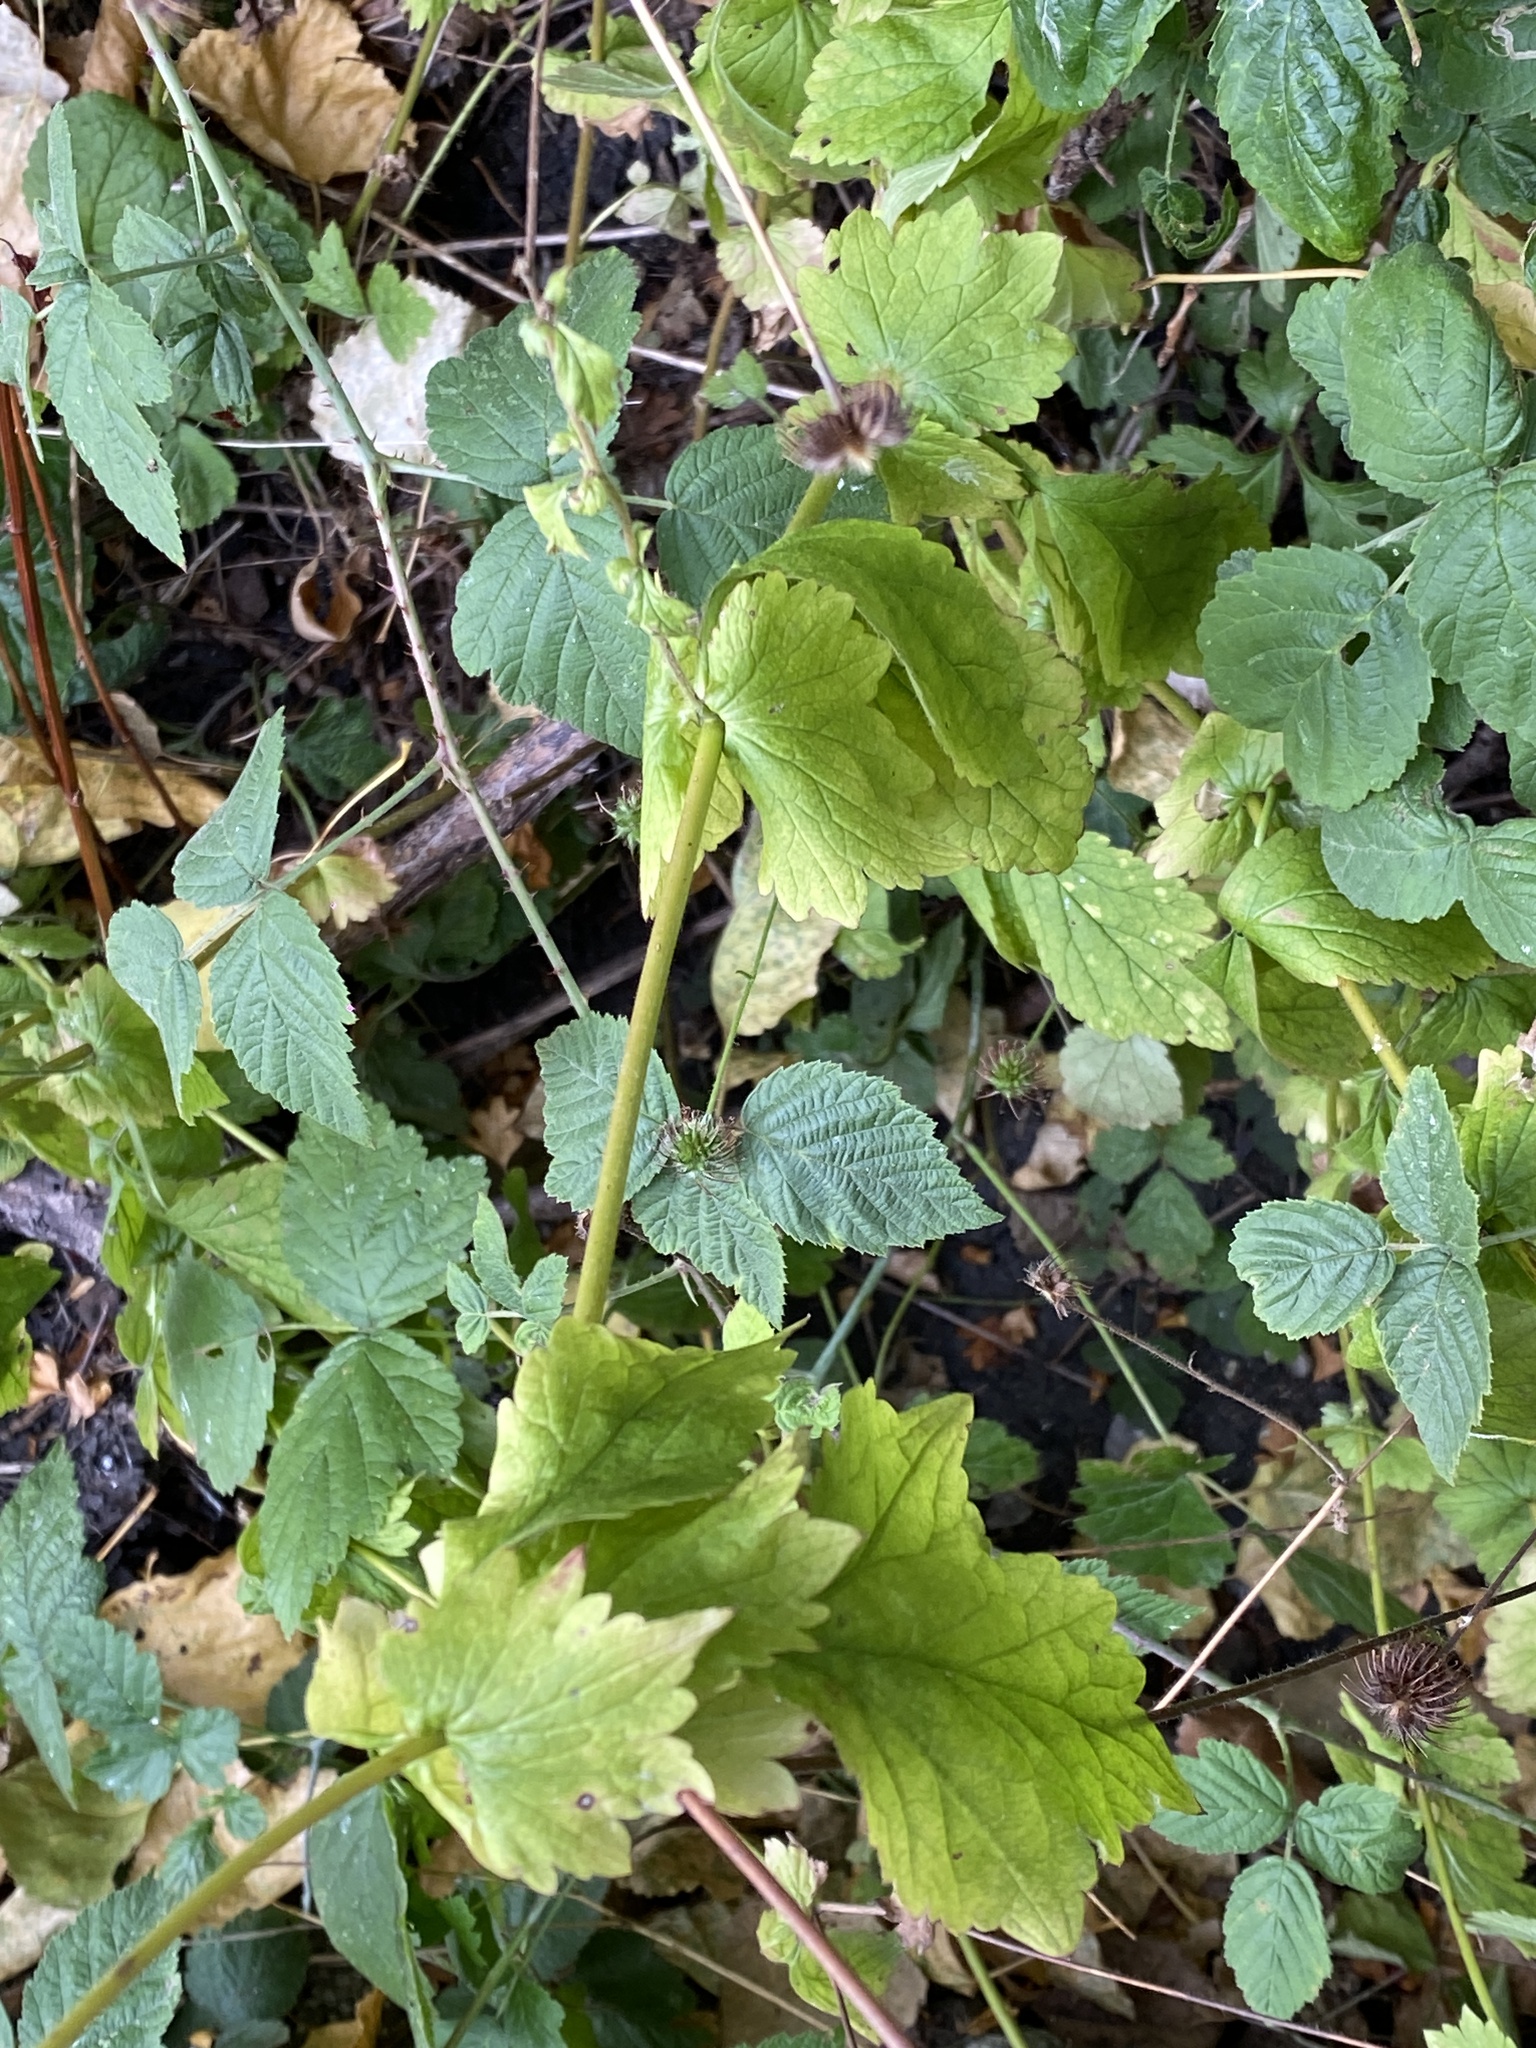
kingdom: Plantae
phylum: Tracheophyta
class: Magnoliopsida
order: Rosales
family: Rosaceae
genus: Geum
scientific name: Geum urbanum
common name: Wood avens
